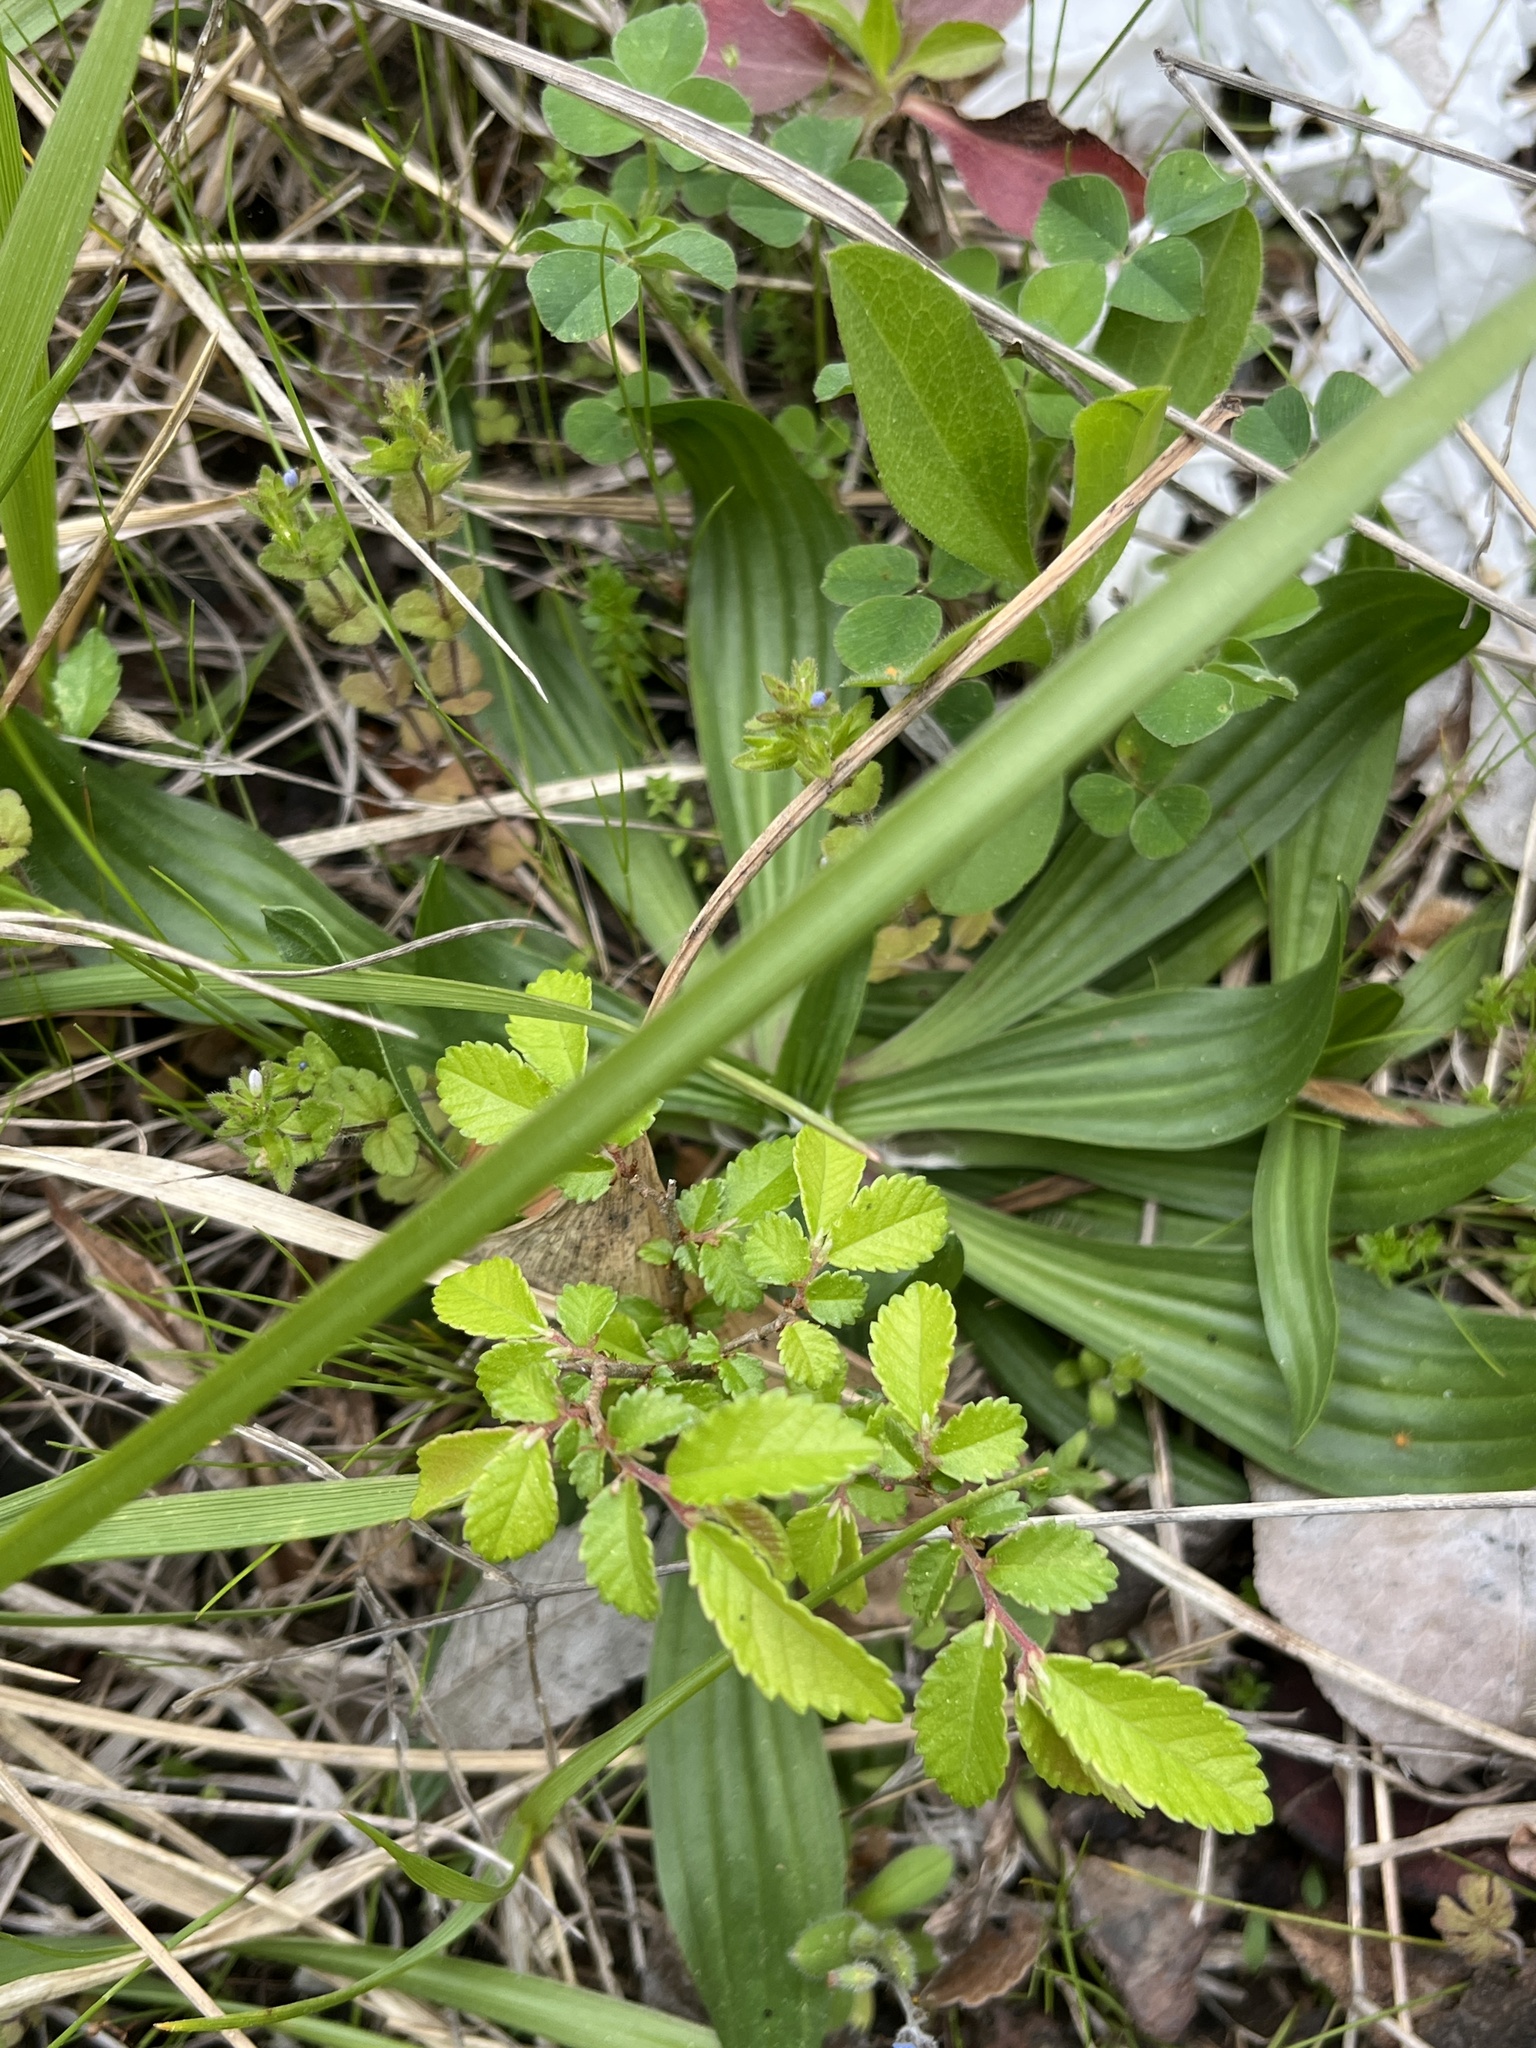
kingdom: Plantae
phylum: Tracheophyta
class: Magnoliopsida
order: Lamiales
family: Plantaginaceae
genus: Plantago
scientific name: Plantago lanceolata
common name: Ribwort plantain
